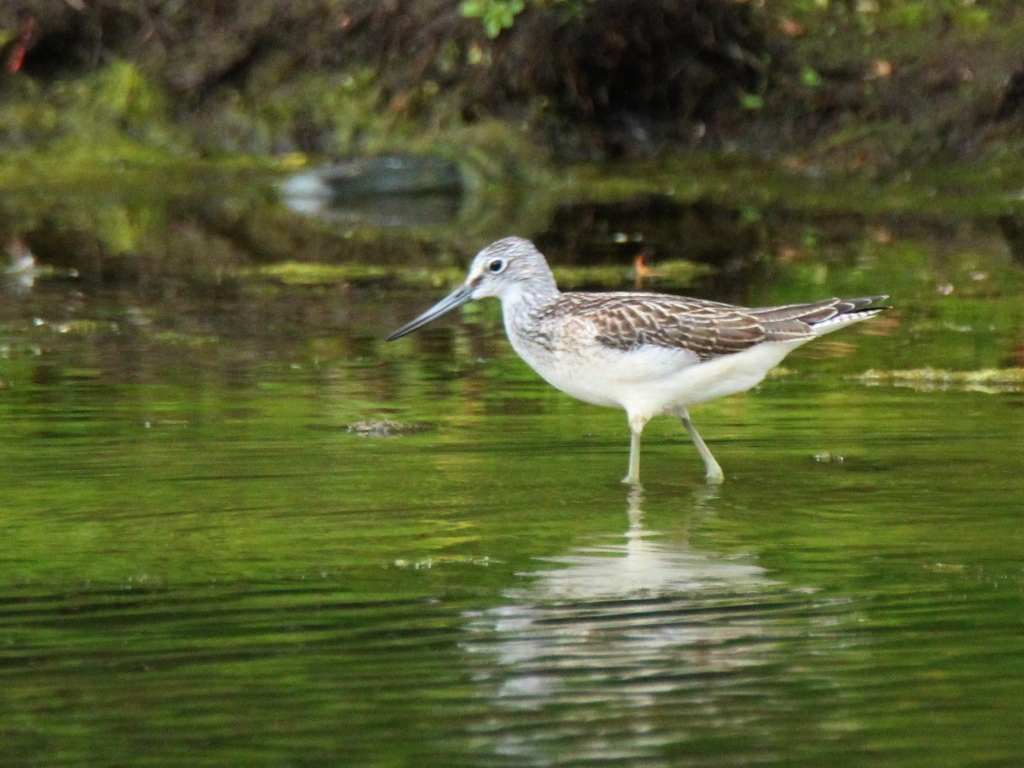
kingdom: Animalia
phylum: Chordata
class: Aves
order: Charadriiformes
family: Scolopacidae
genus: Tringa
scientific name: Tringa nebularia
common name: Common greenshank
